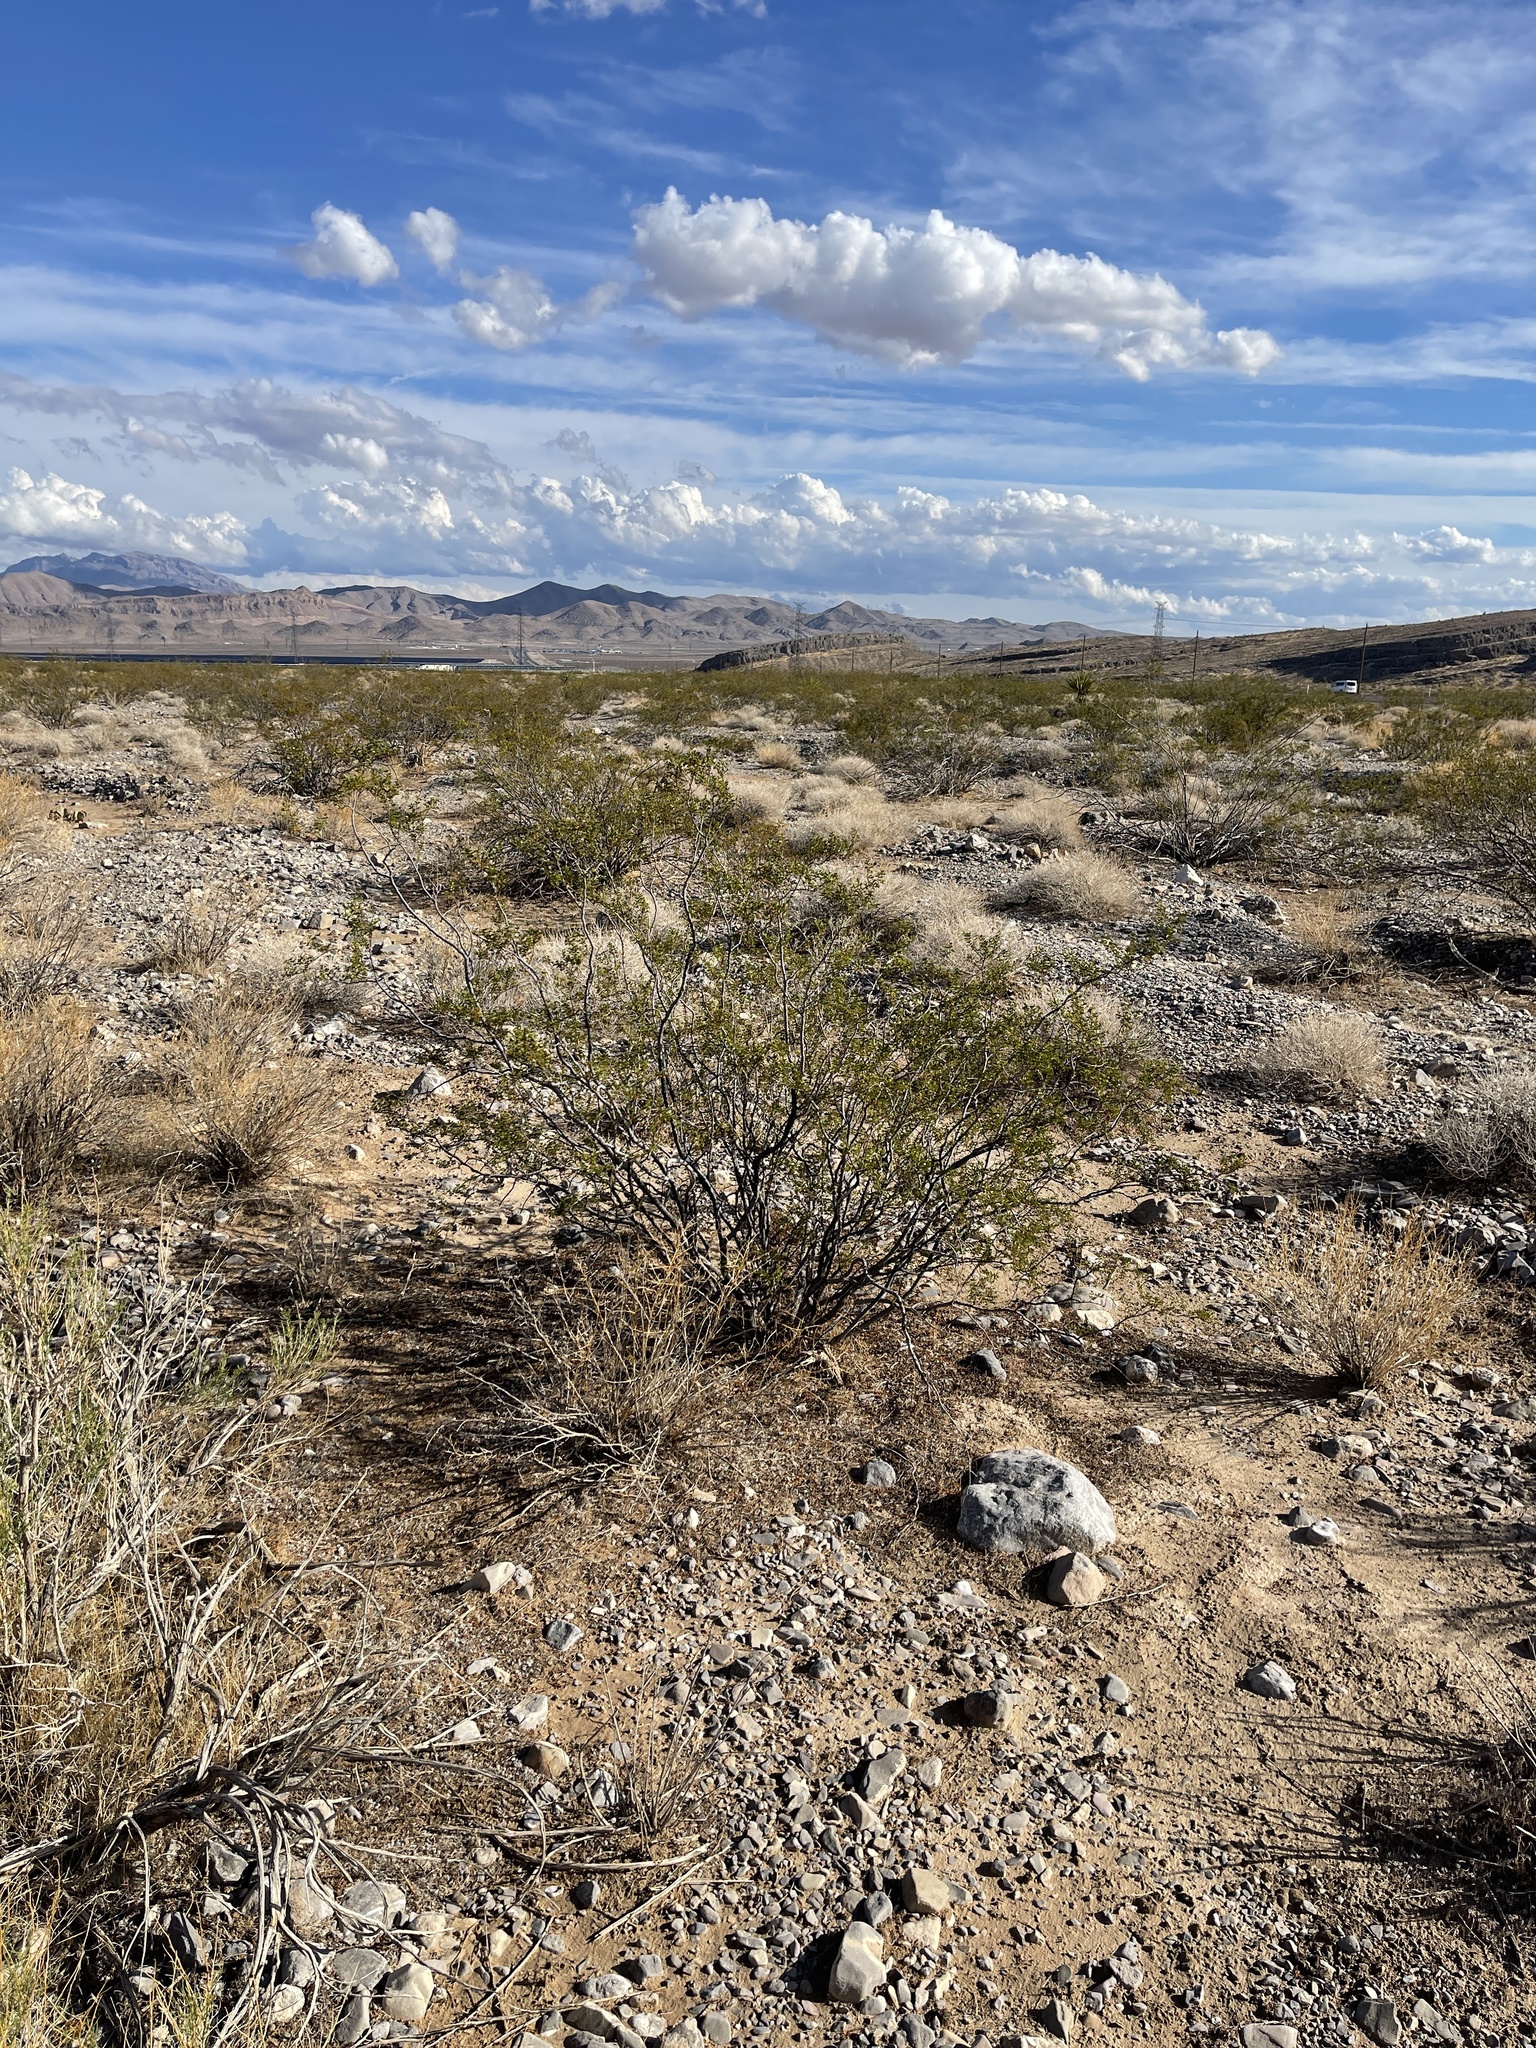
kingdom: Plantae
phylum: Tracheophyta
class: Magnoliopsida
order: Zygophyllales
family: Zygophyllaceae
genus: Larrea
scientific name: Larrea tridentata
